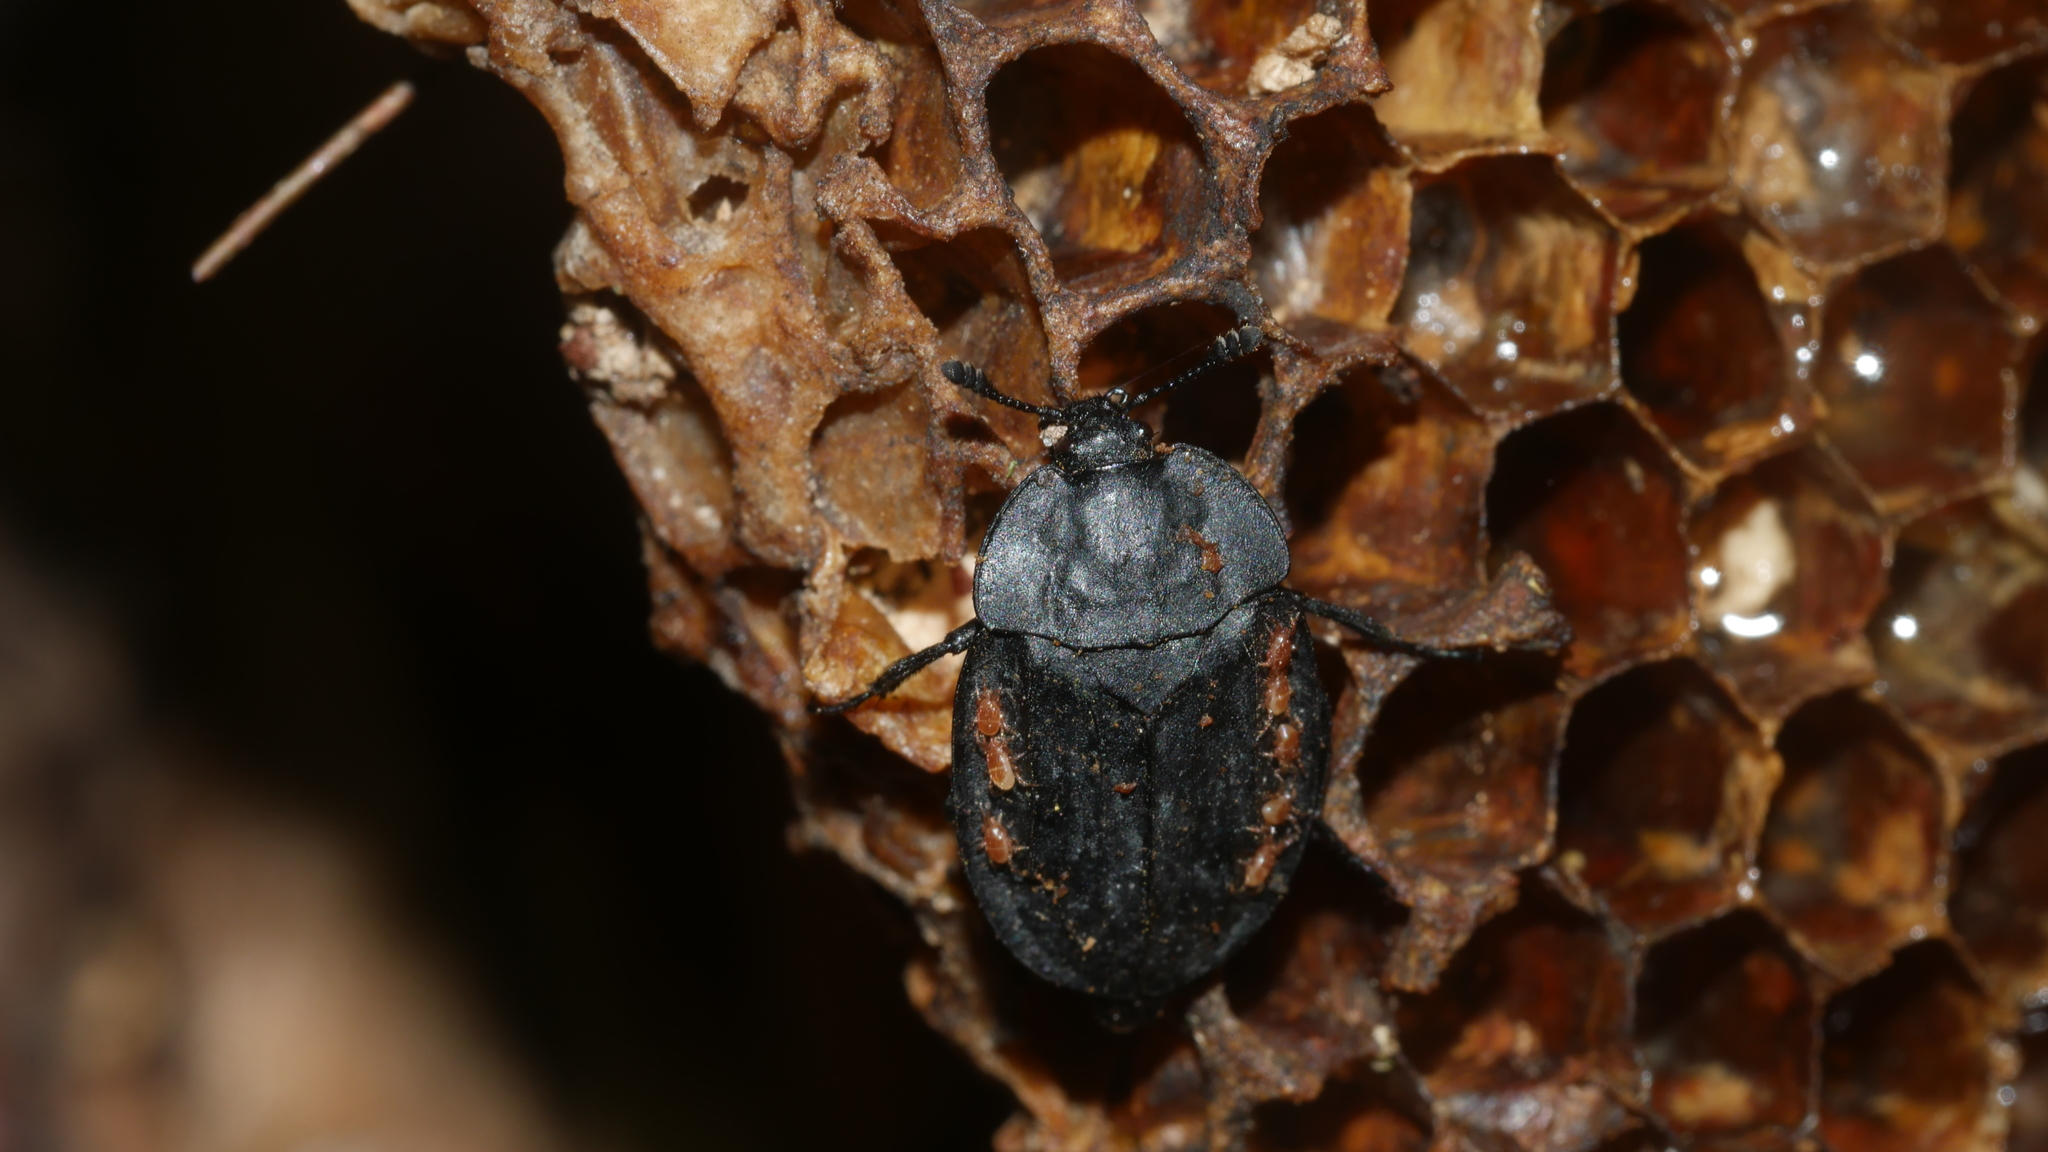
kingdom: Animalia
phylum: Arthropoda
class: Insecta
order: Coleoptera
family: Staphylinidae
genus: Oiceoptoma
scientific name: Oiceoptoma inaequale
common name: Ridged carrion beetle
